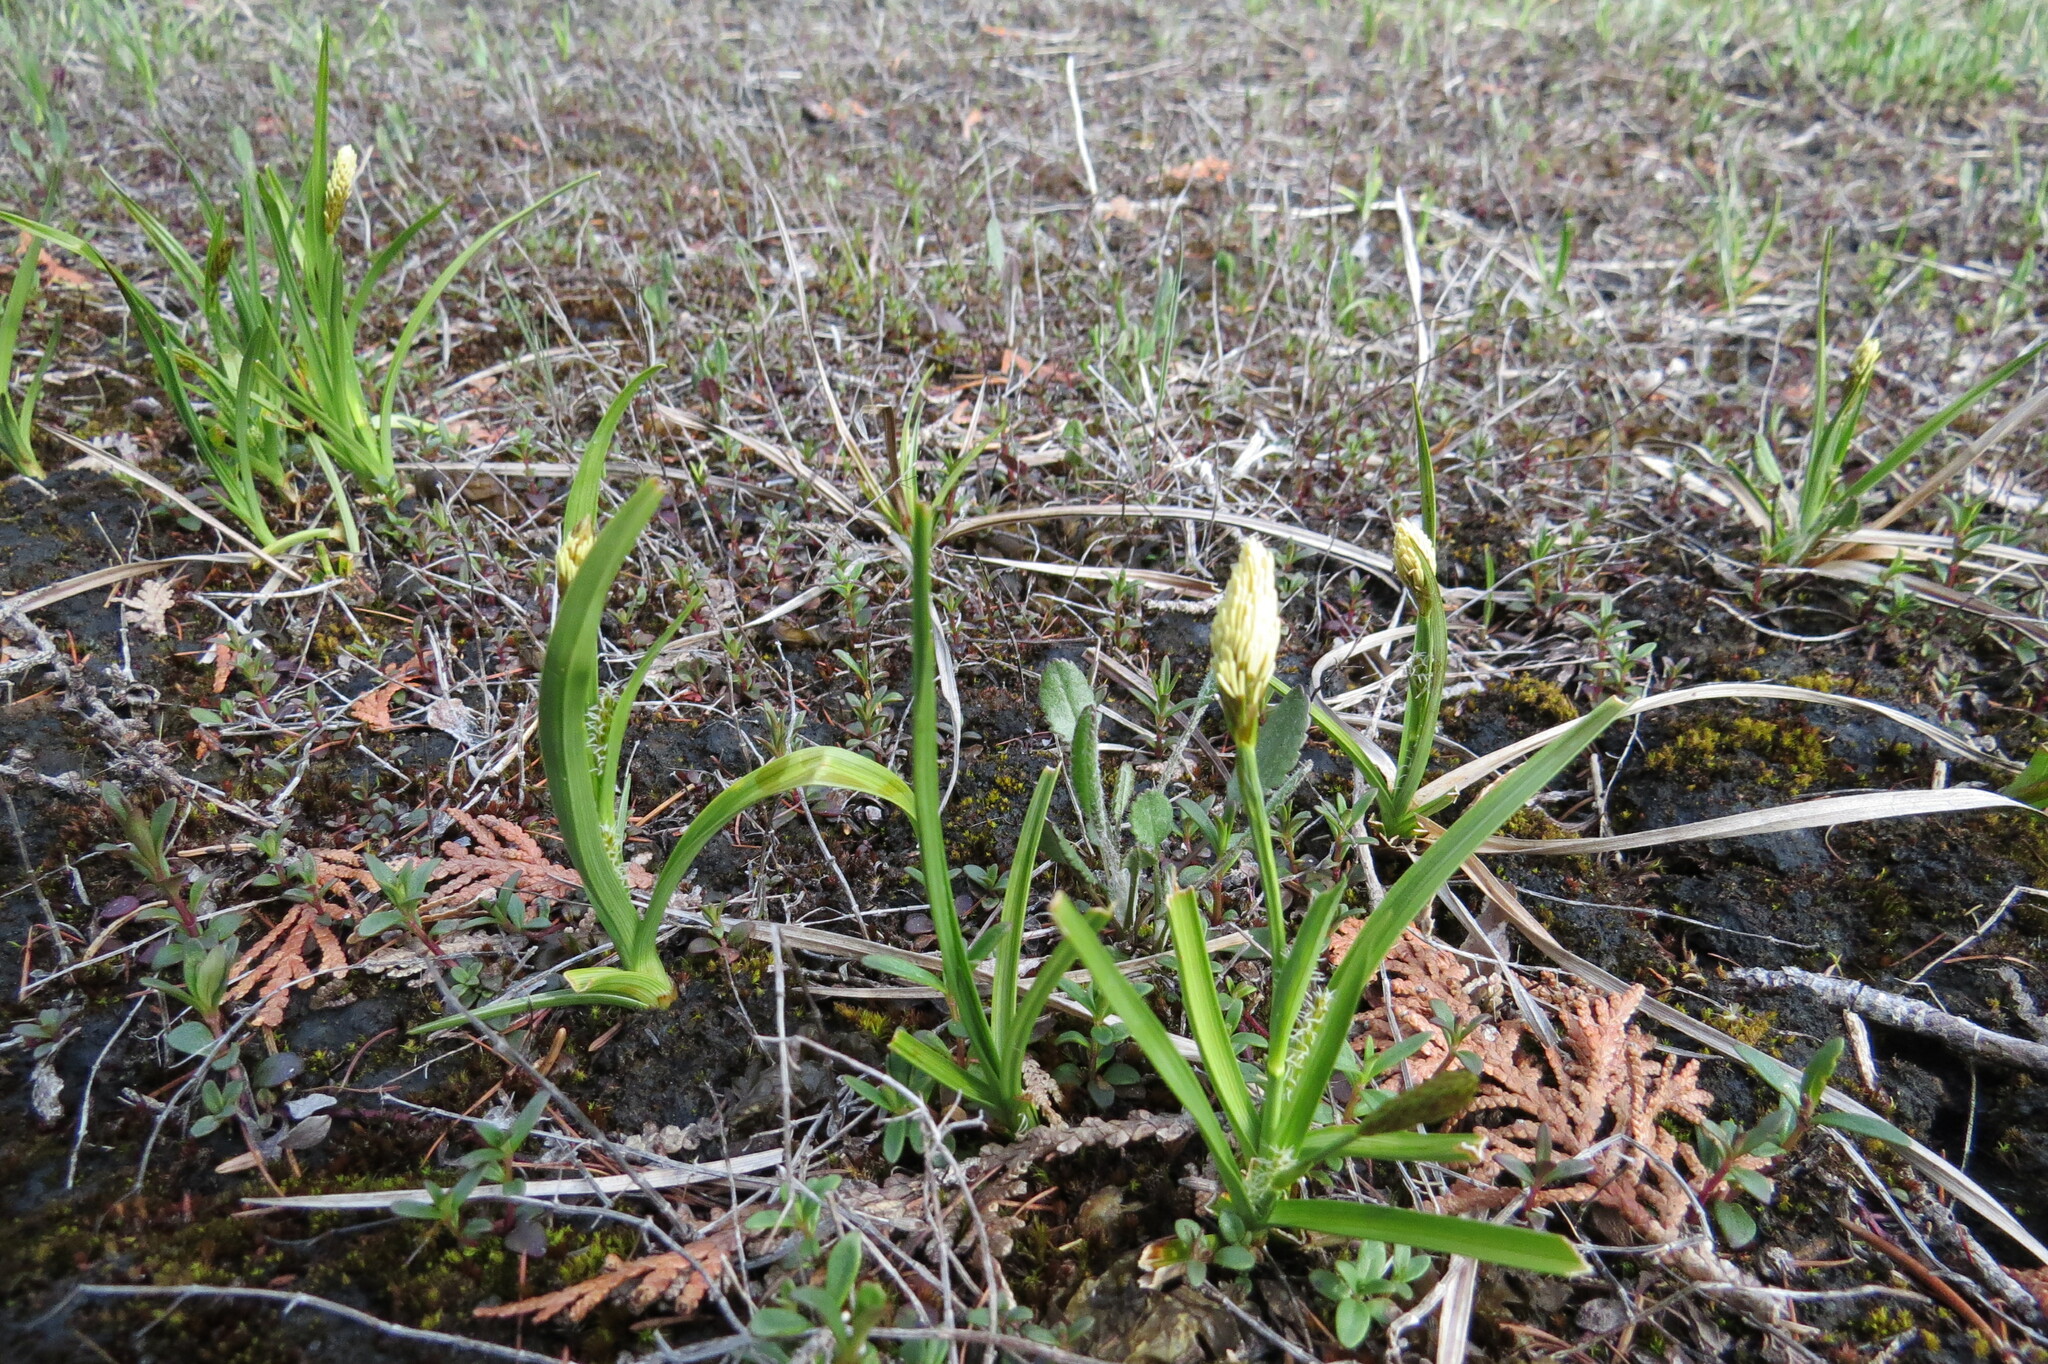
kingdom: Plantae
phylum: Tracheophyta
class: Liliopsida
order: Poales
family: Cyperaceae
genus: Carex
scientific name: Carex crawei
